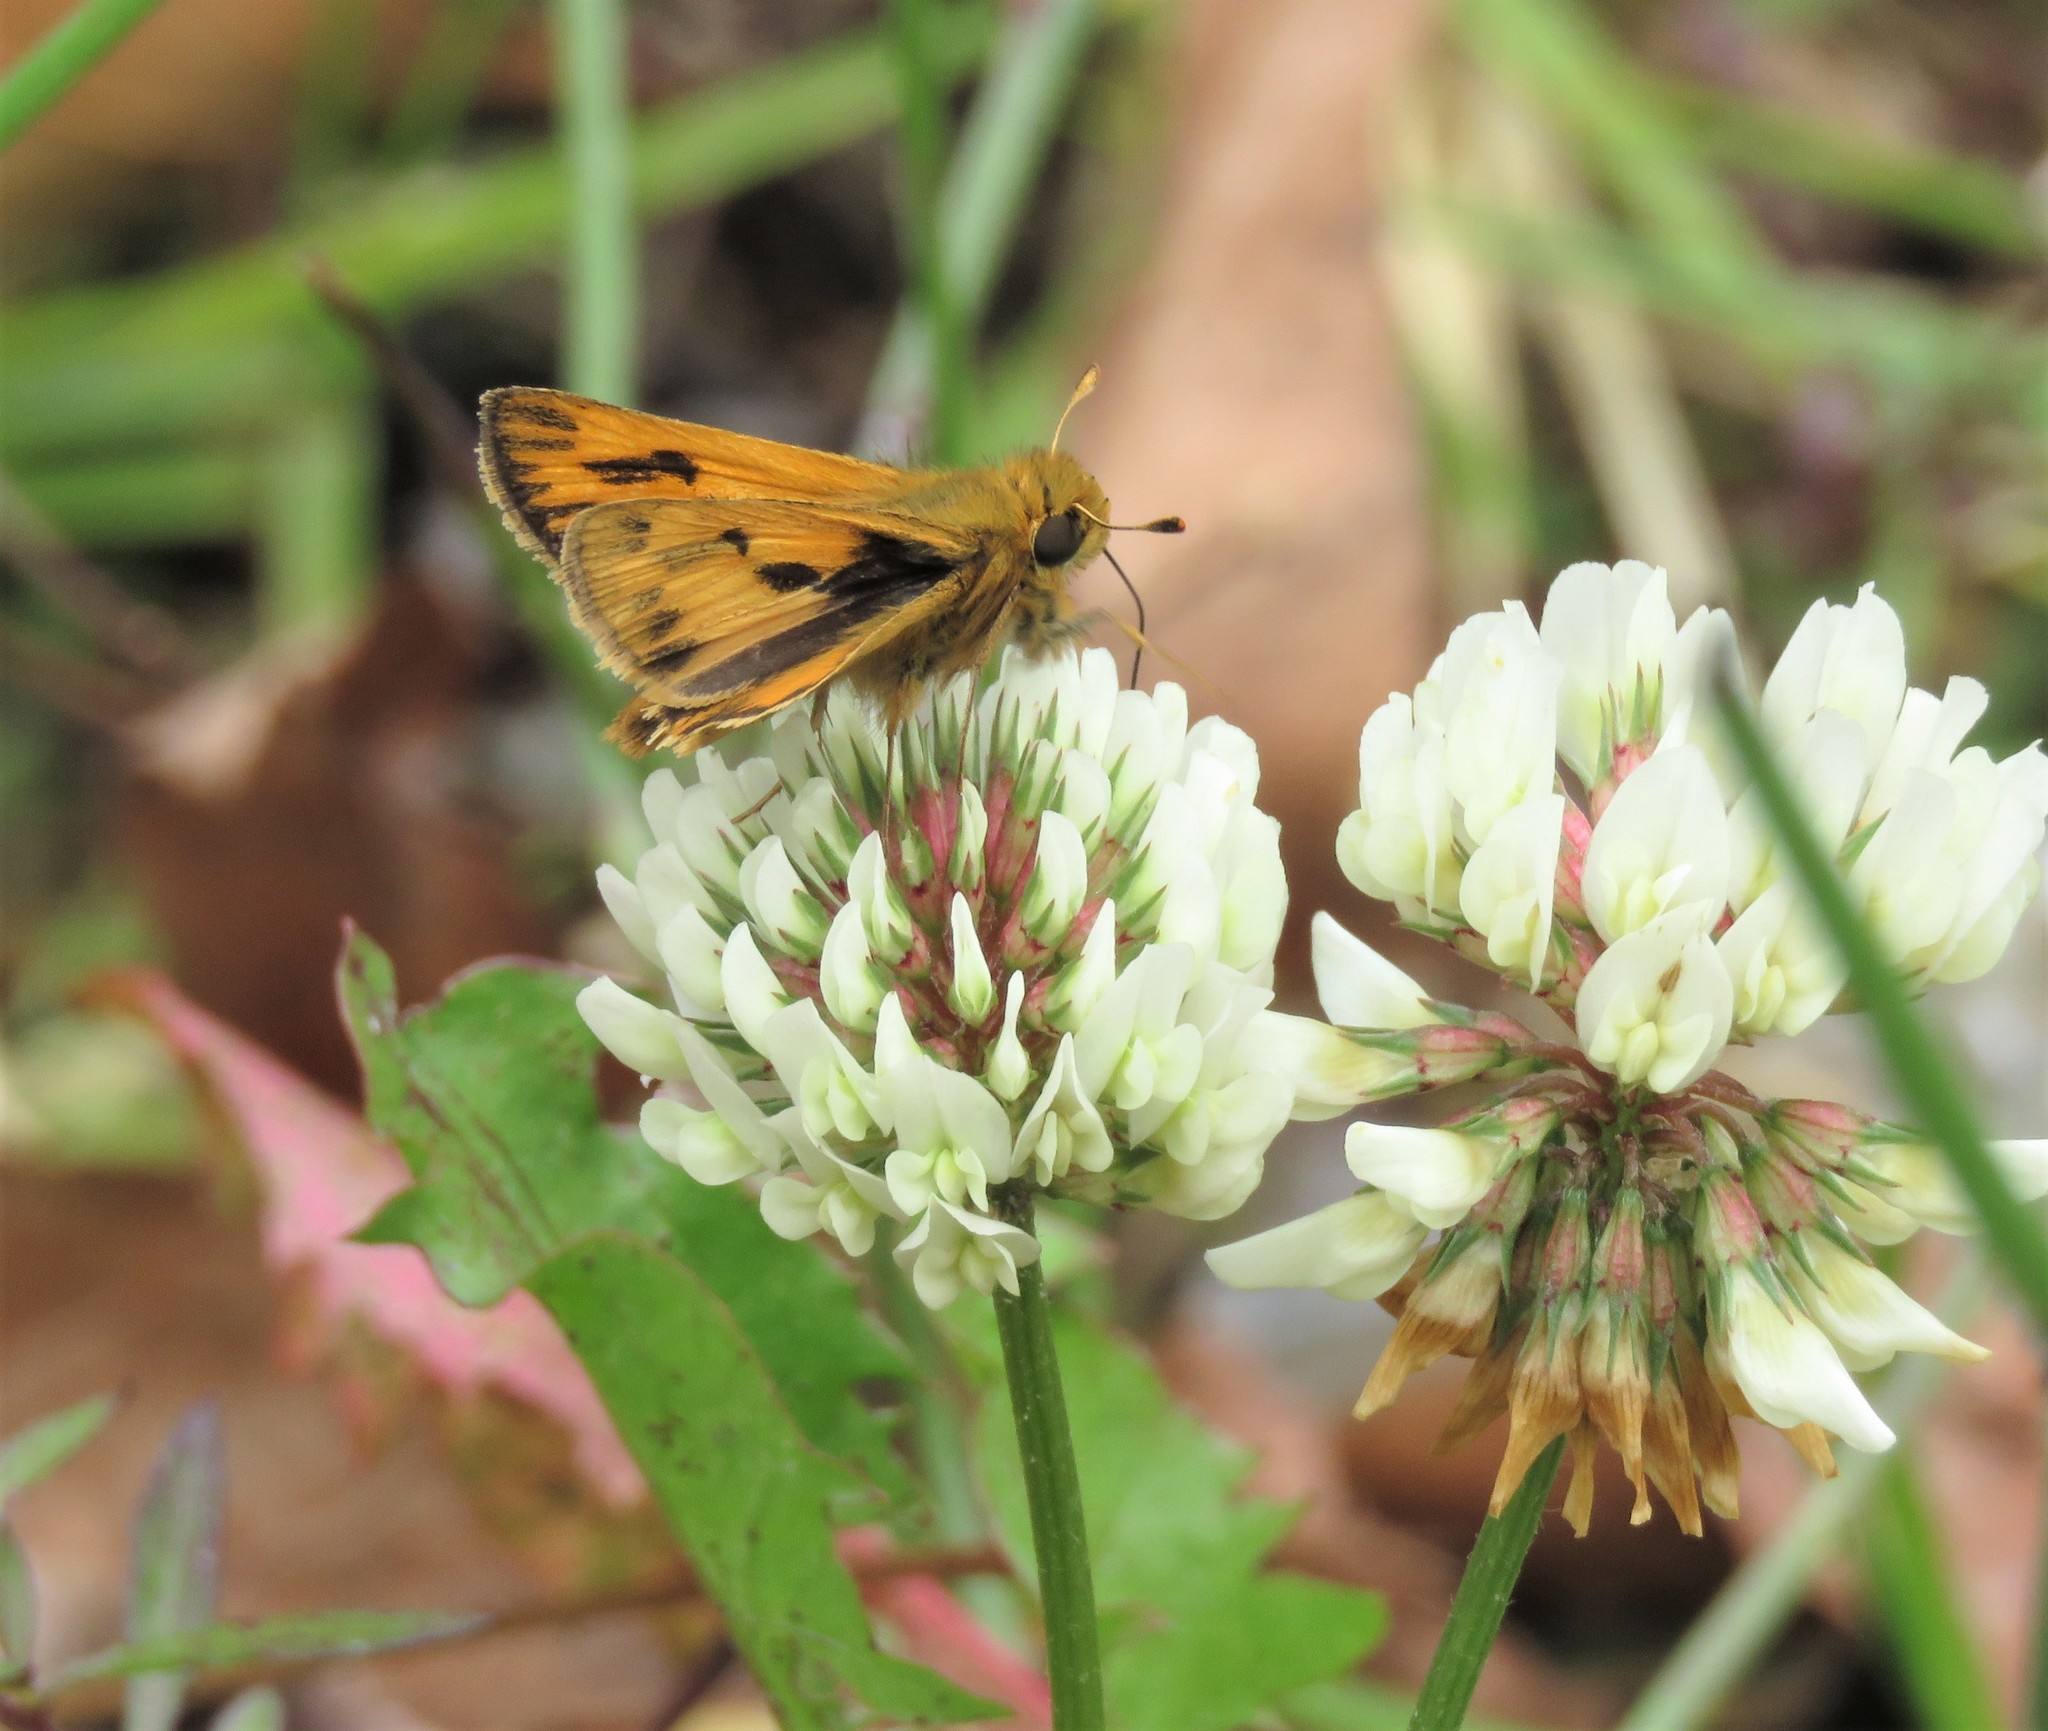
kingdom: Plantae
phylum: Tracheophyta
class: Magnoliopsida
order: Fabales
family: Fabaceae
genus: Trifolium
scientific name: Trifolium repens
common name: White clover
